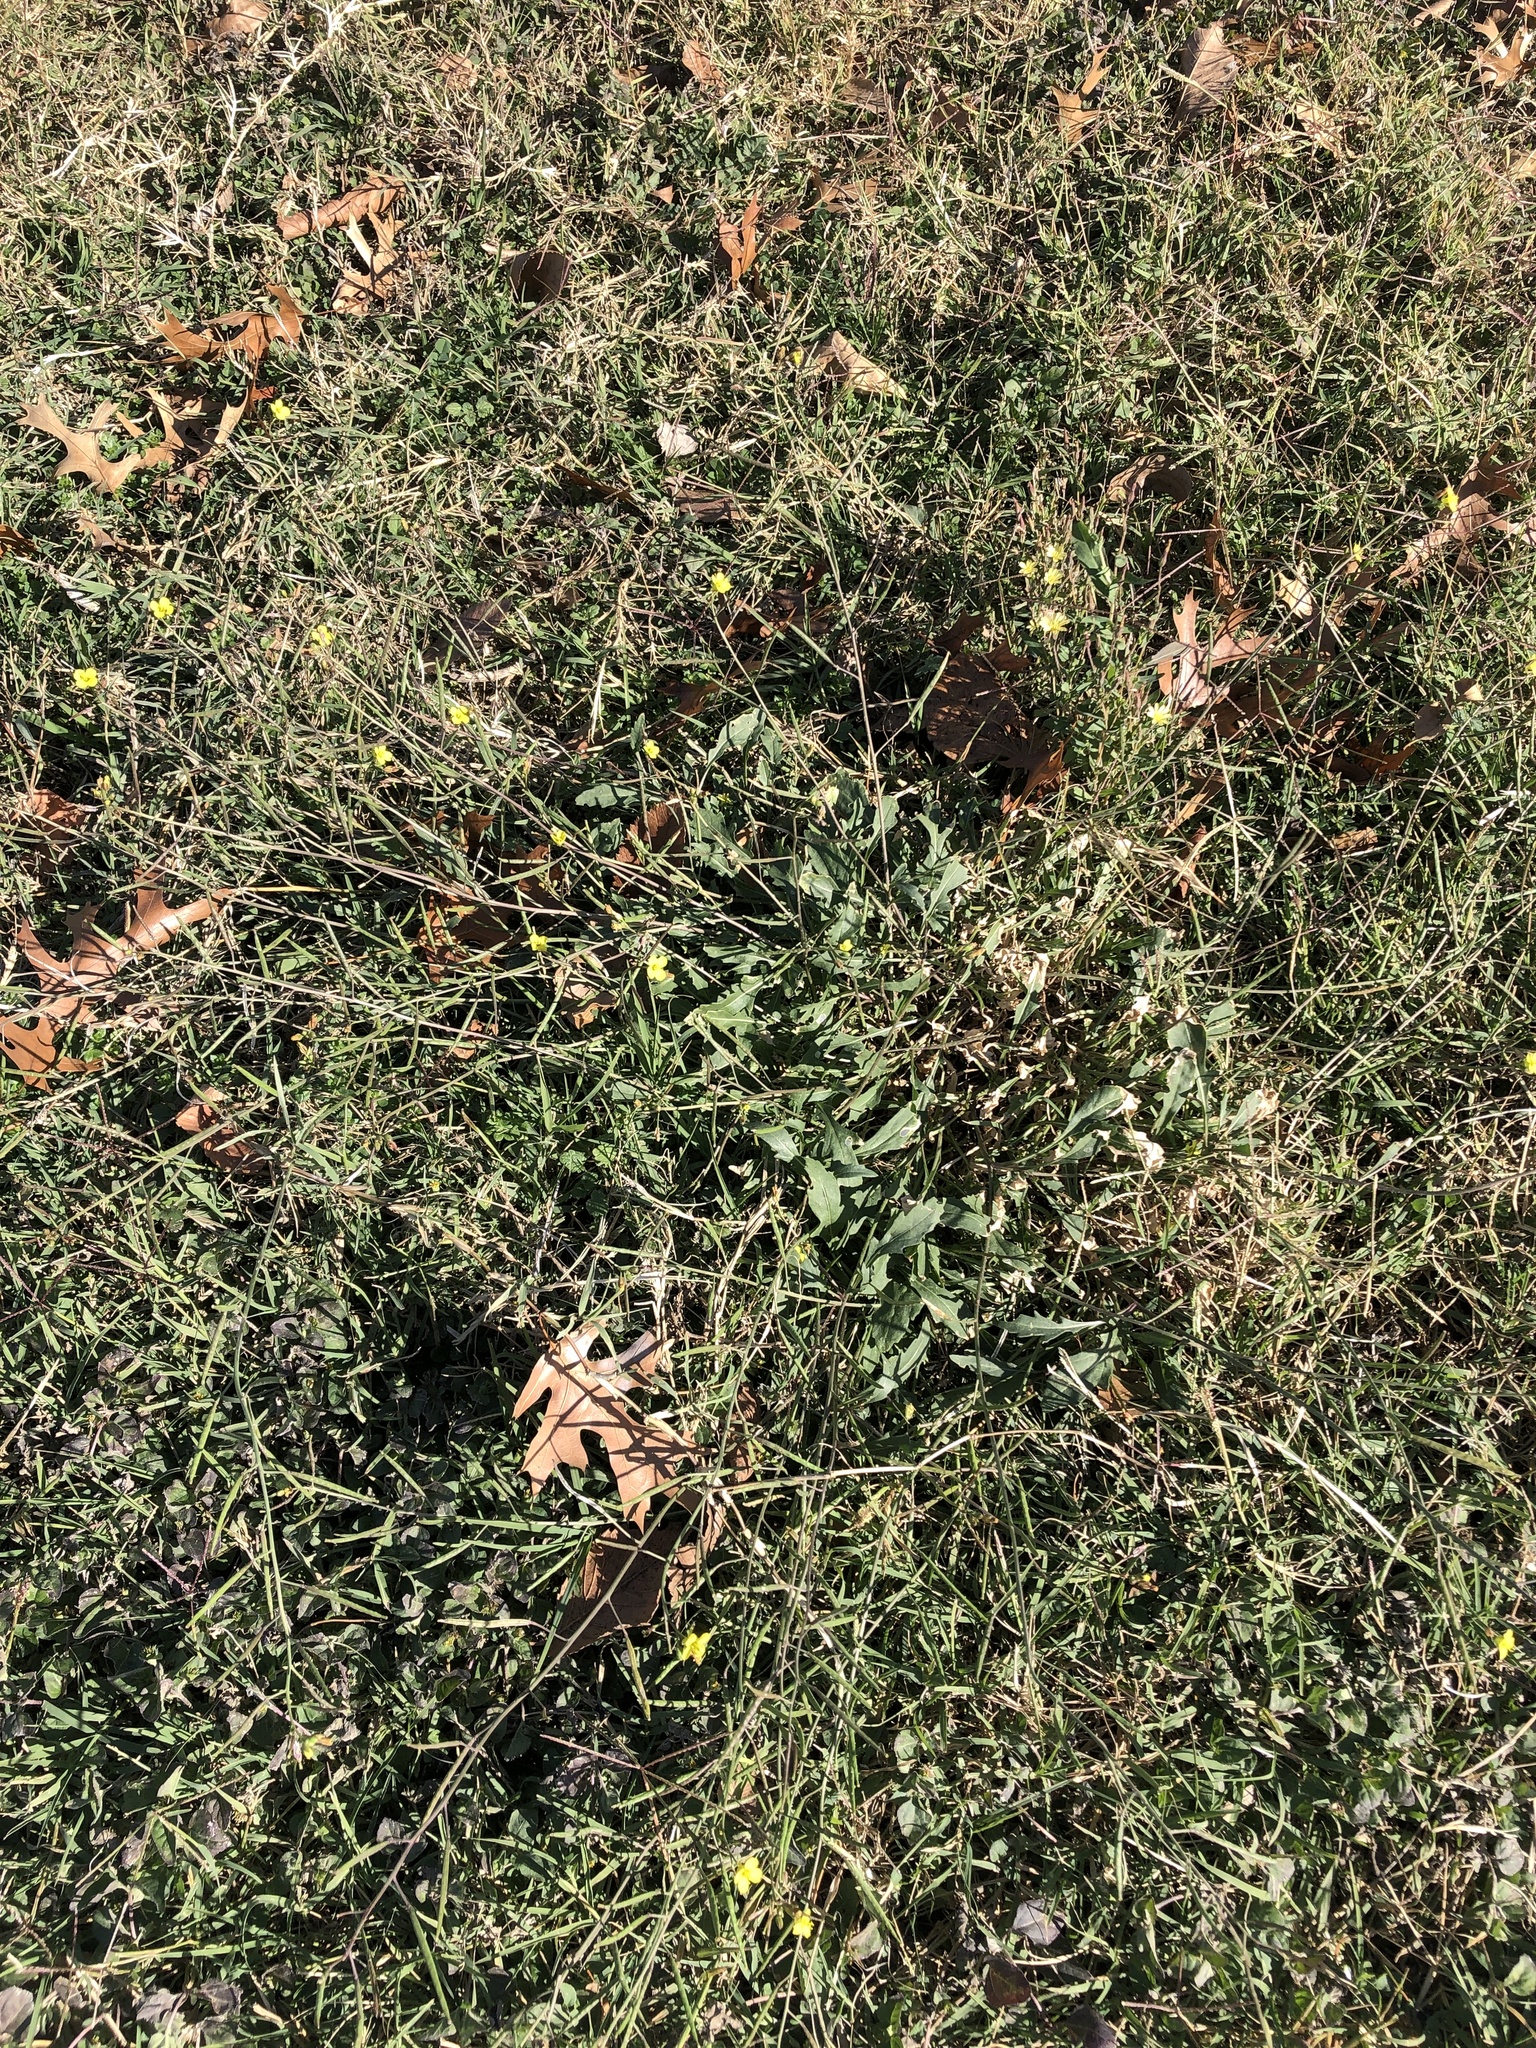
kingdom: Plantae
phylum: Tracheophyta
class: Magnoliopsida
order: Brassicales
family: Brassicaceae
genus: Diplotaxis
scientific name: Diplotaxis muralis
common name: Annual wall-rocket
